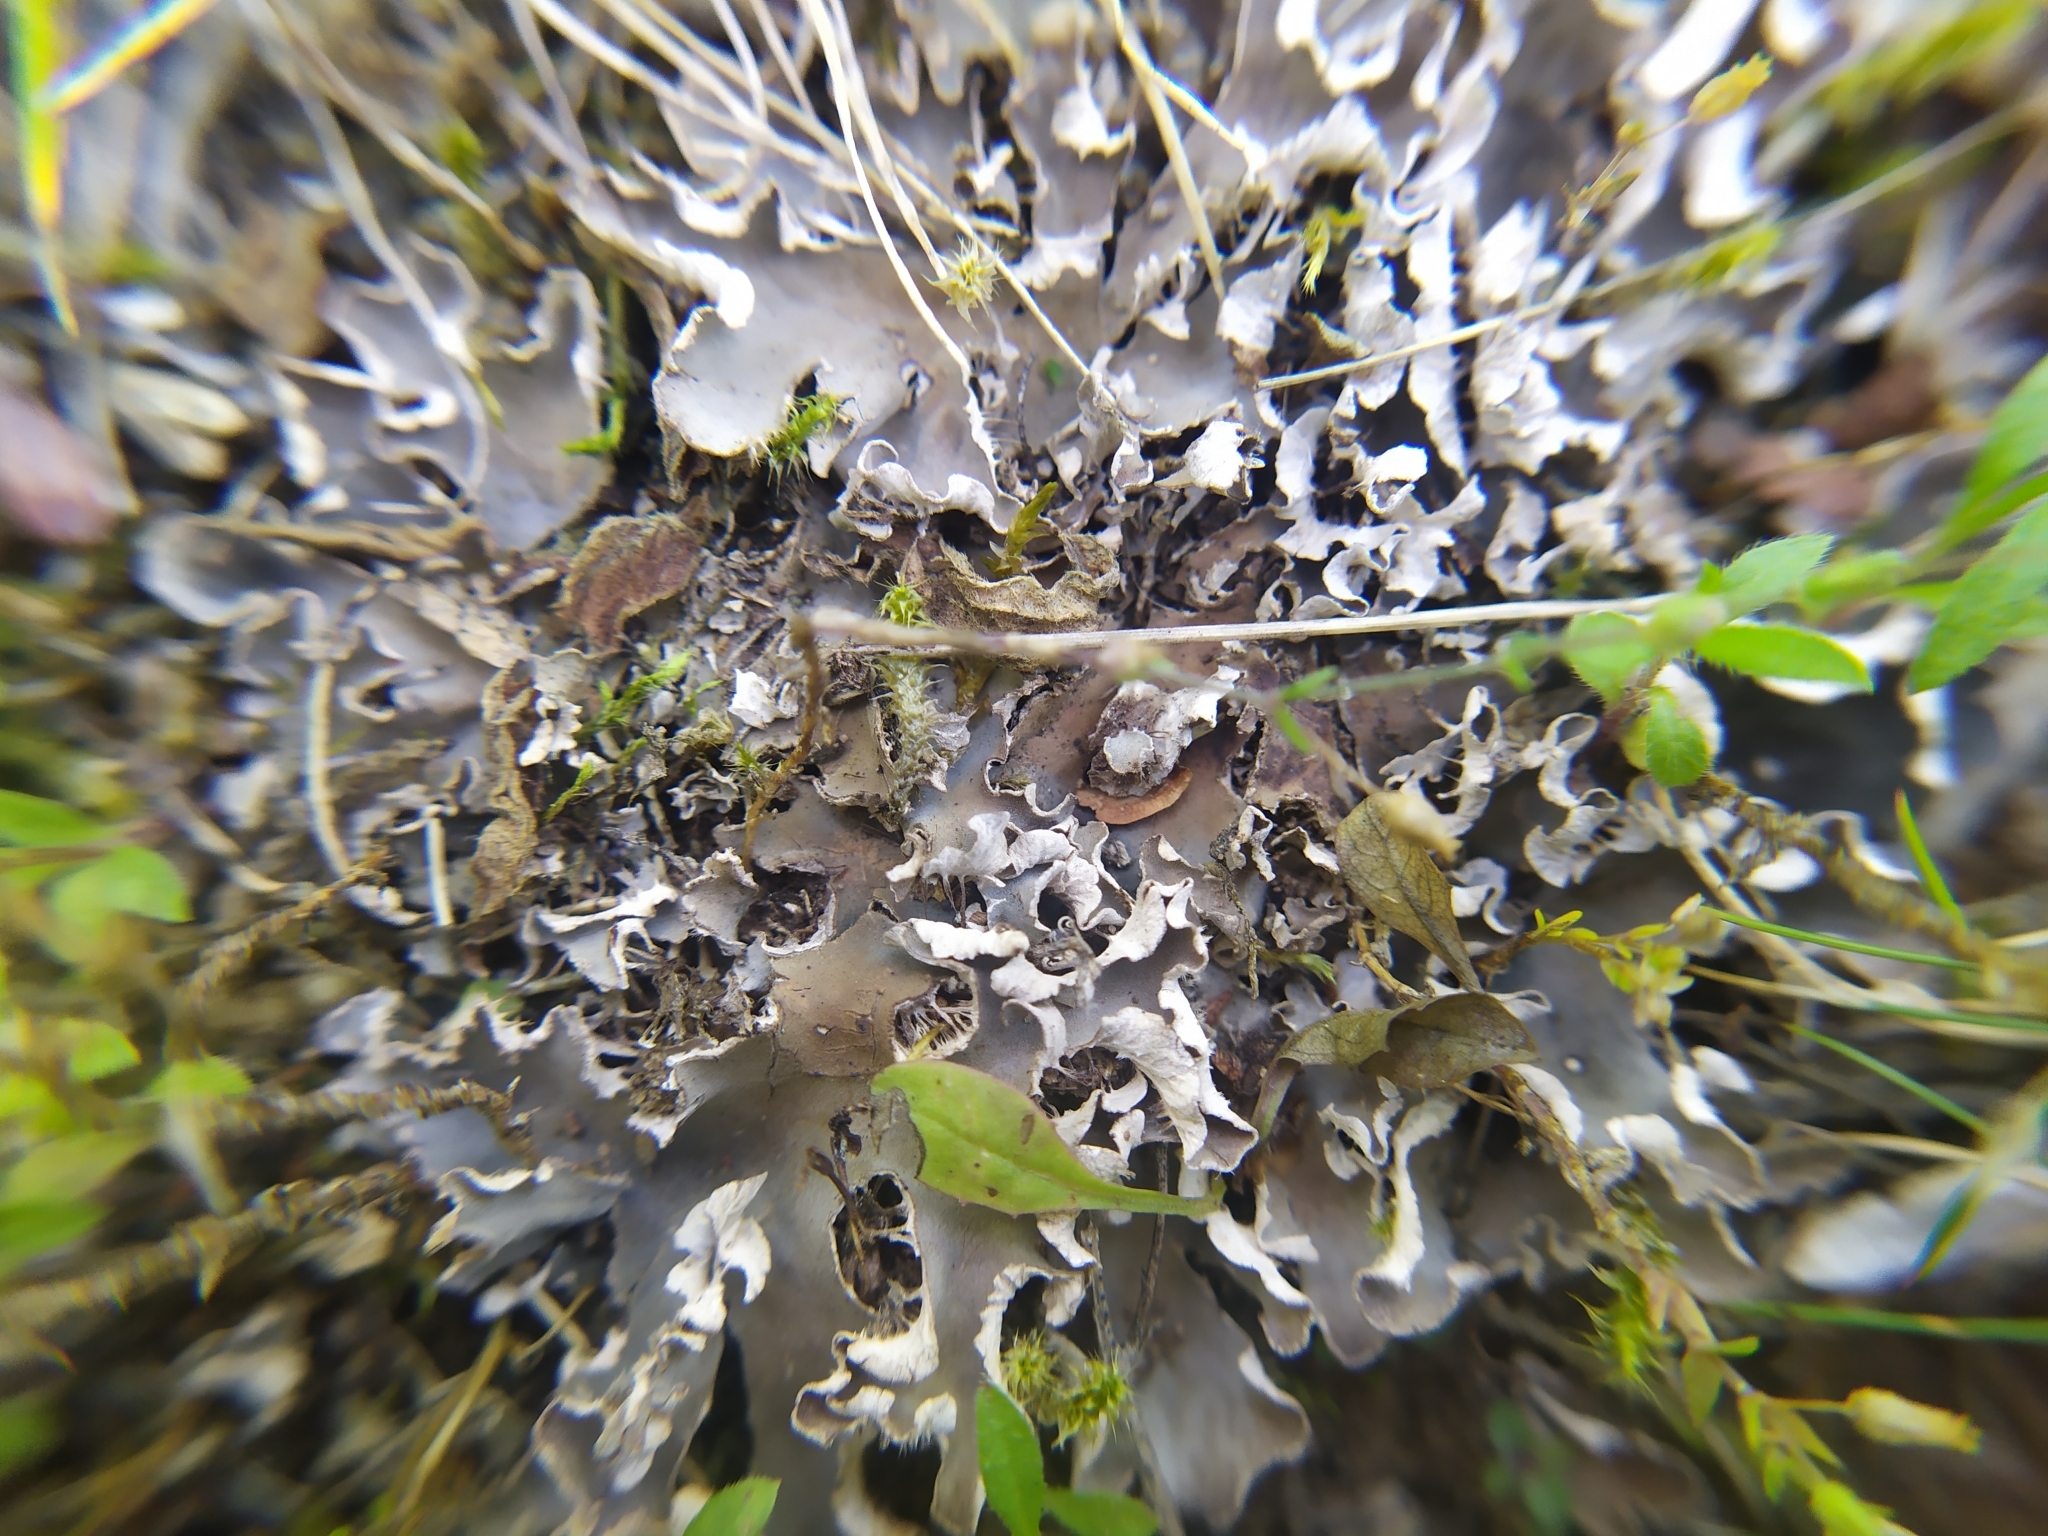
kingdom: Fungi
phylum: Ascomycota
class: Lecanoromycetes
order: Peltigerales
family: Peltigeraceae
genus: Peltigera
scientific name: Peltigera rufescens
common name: Field dog lichen
